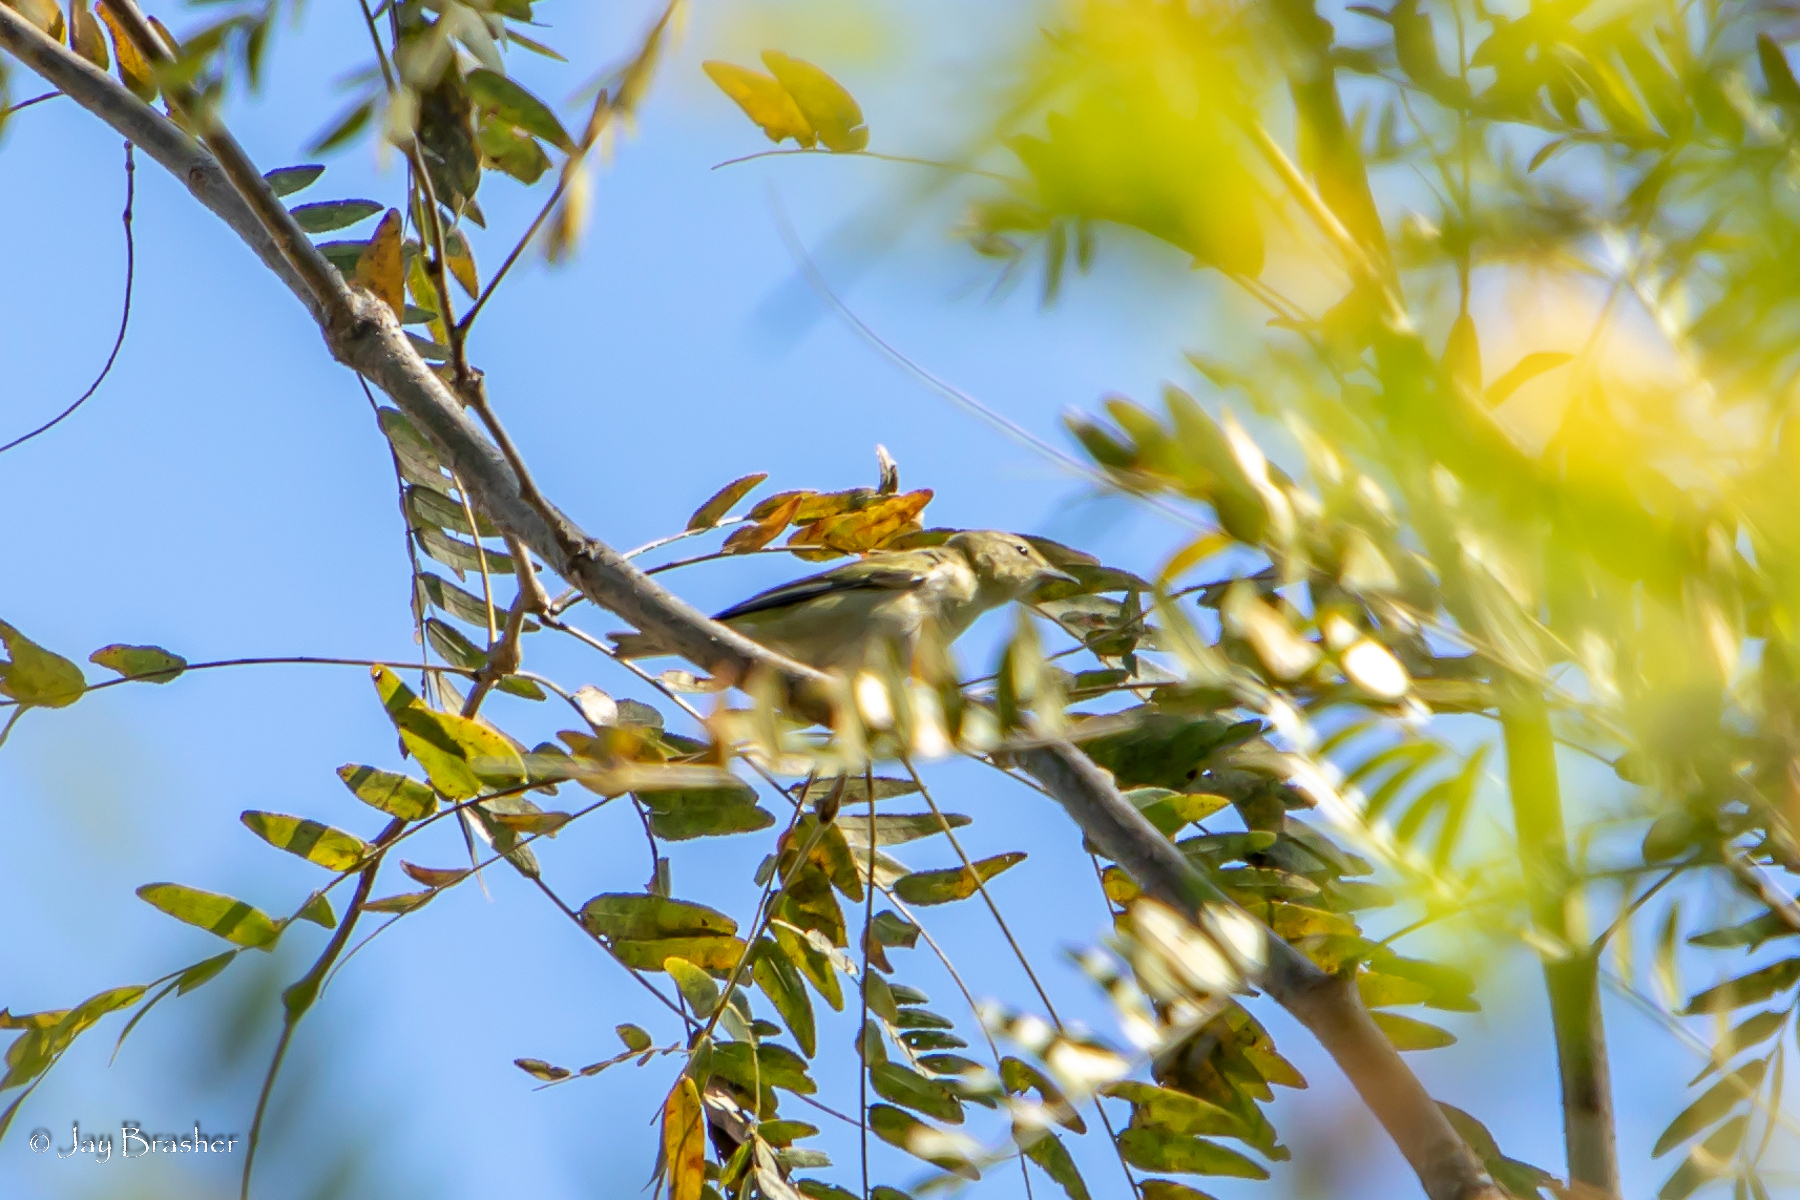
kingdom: Animalia
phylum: Chordata
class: Aves
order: Passeriformes
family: Parulidae
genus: Leiothlypis
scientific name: Leiothlypis peregrina
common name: Tennessee warbler
